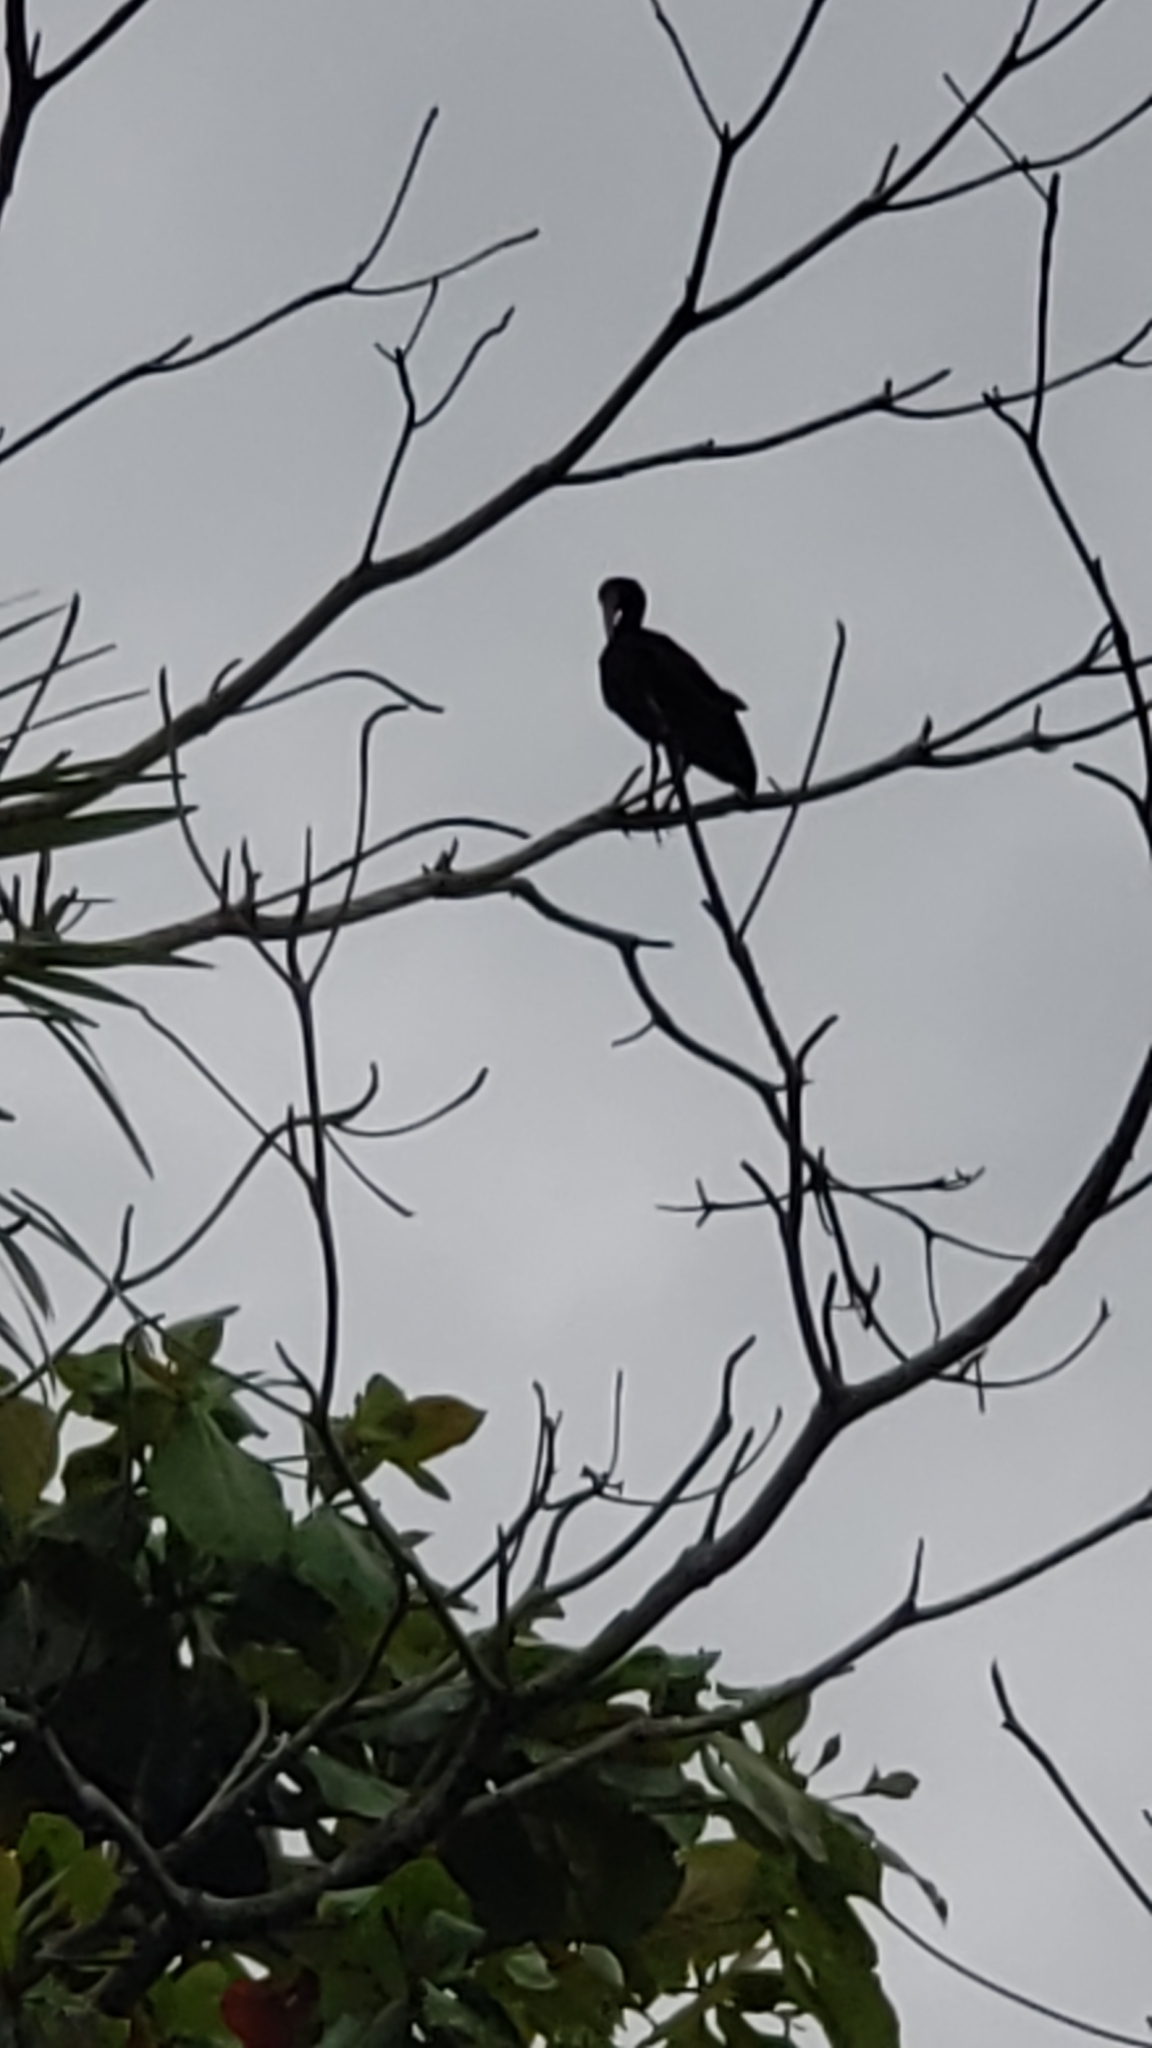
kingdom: Animalia
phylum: Chordata
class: Aves
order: Pelecaniformes
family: Threskiornithidae
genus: Phimosus
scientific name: Phimosus infuscatus
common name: Bare-faced ibis
